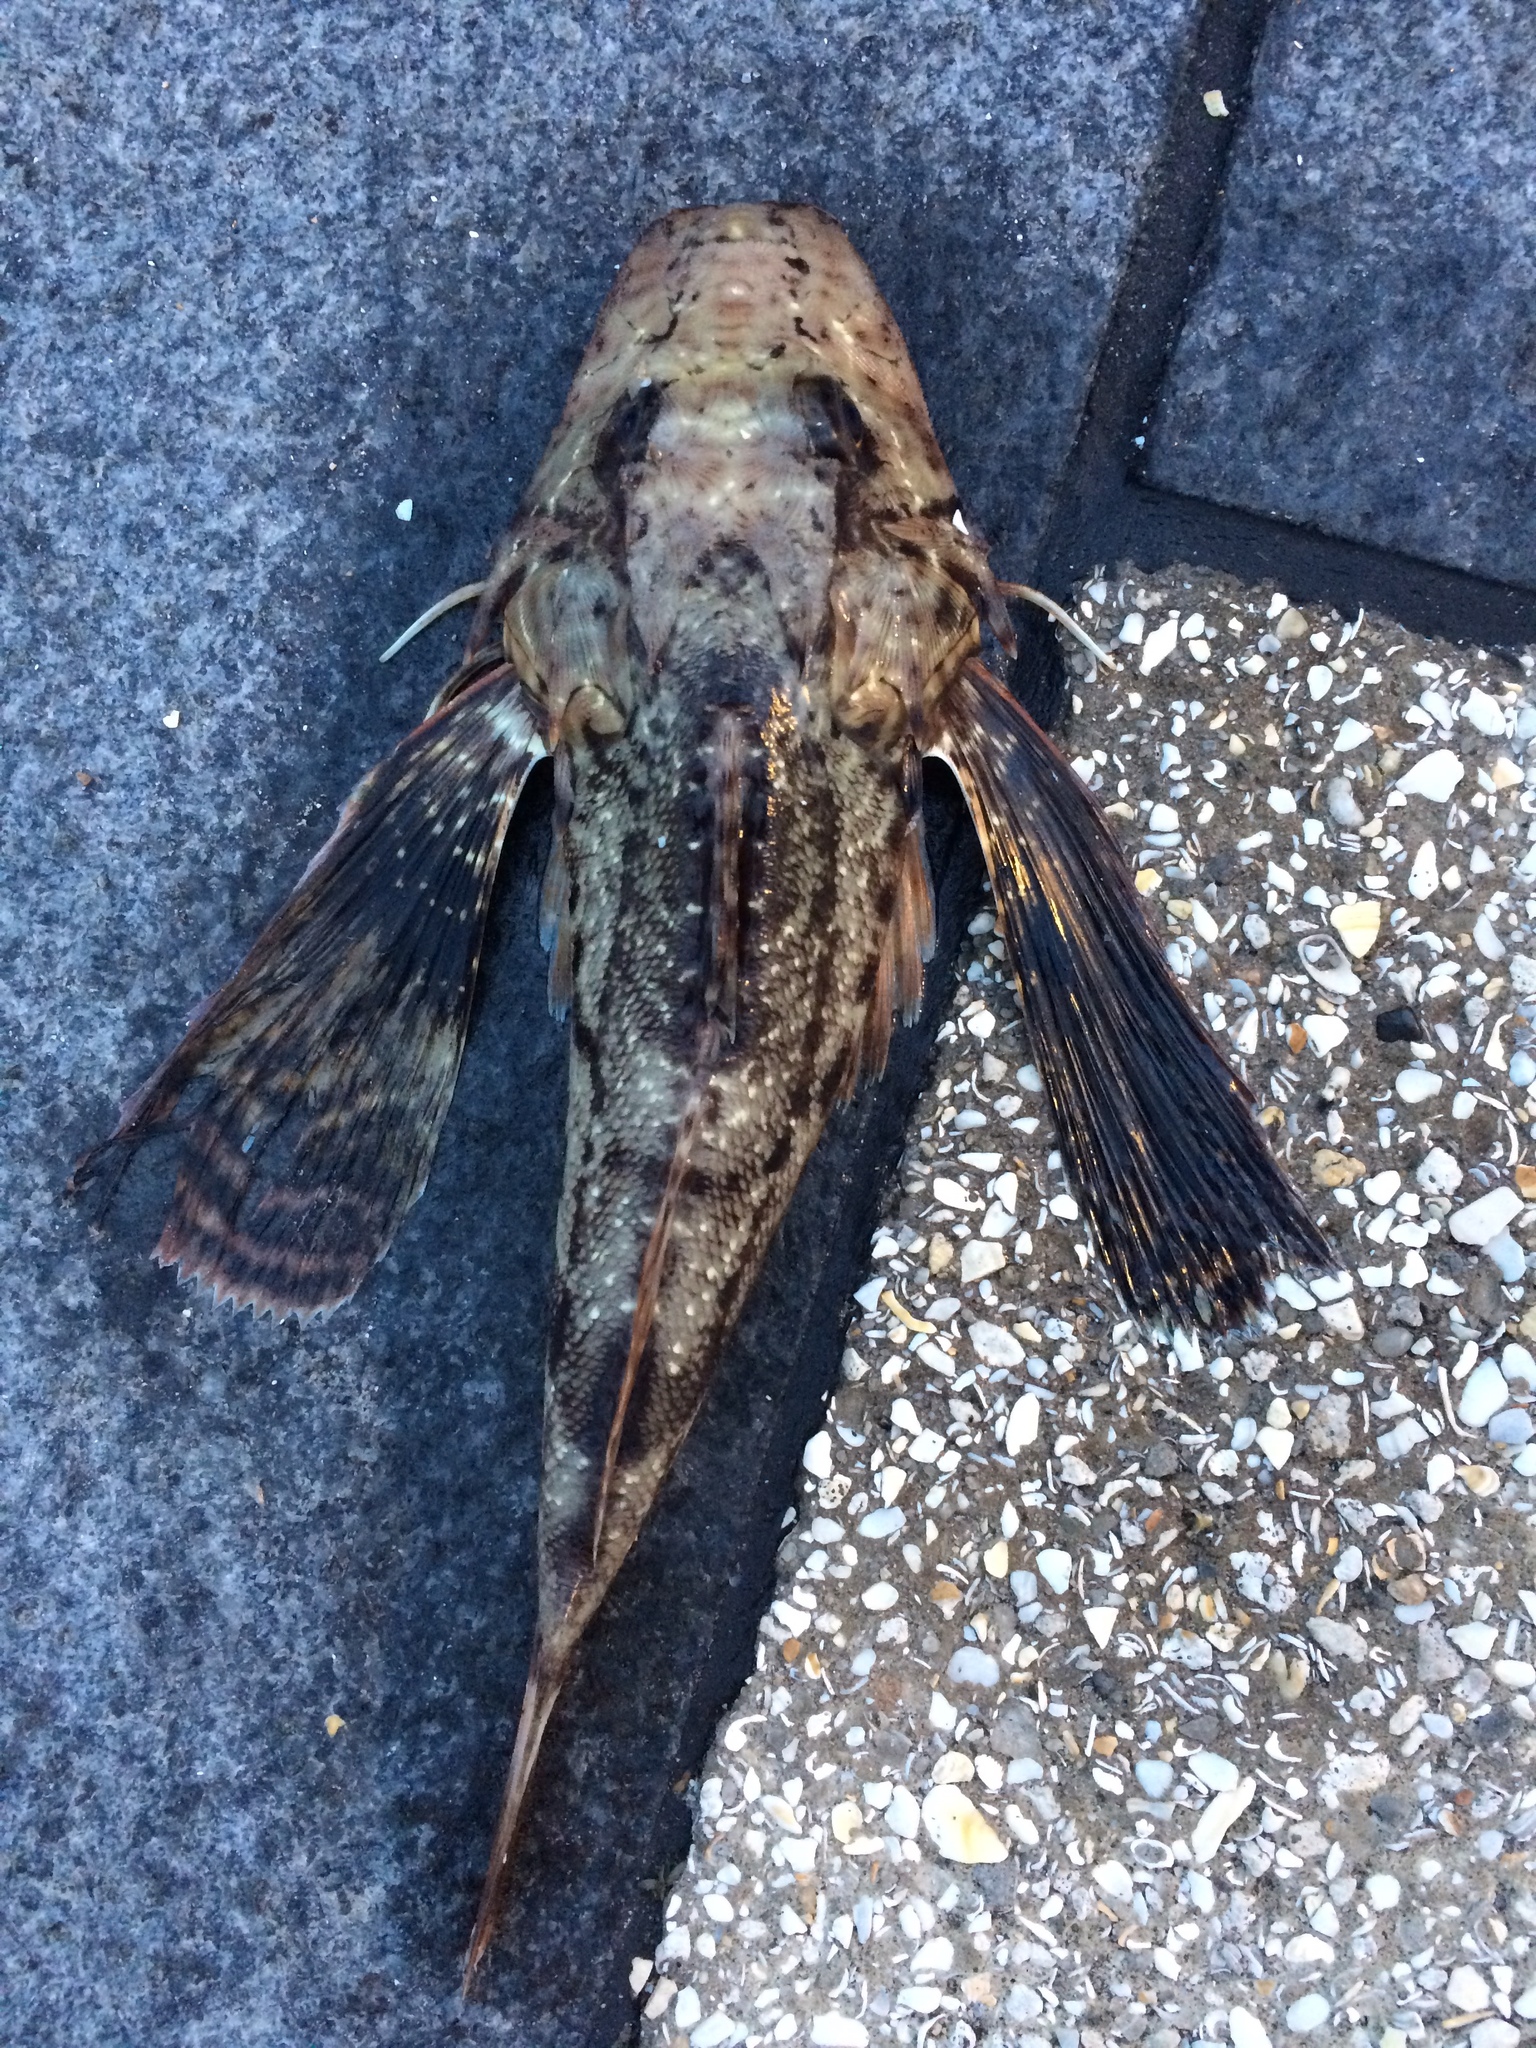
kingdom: Animalia
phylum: Chordata
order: Scorpaeniformes
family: Triglidae
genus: Prionotus
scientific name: Prionotus tribulus
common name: Bighead searobin
